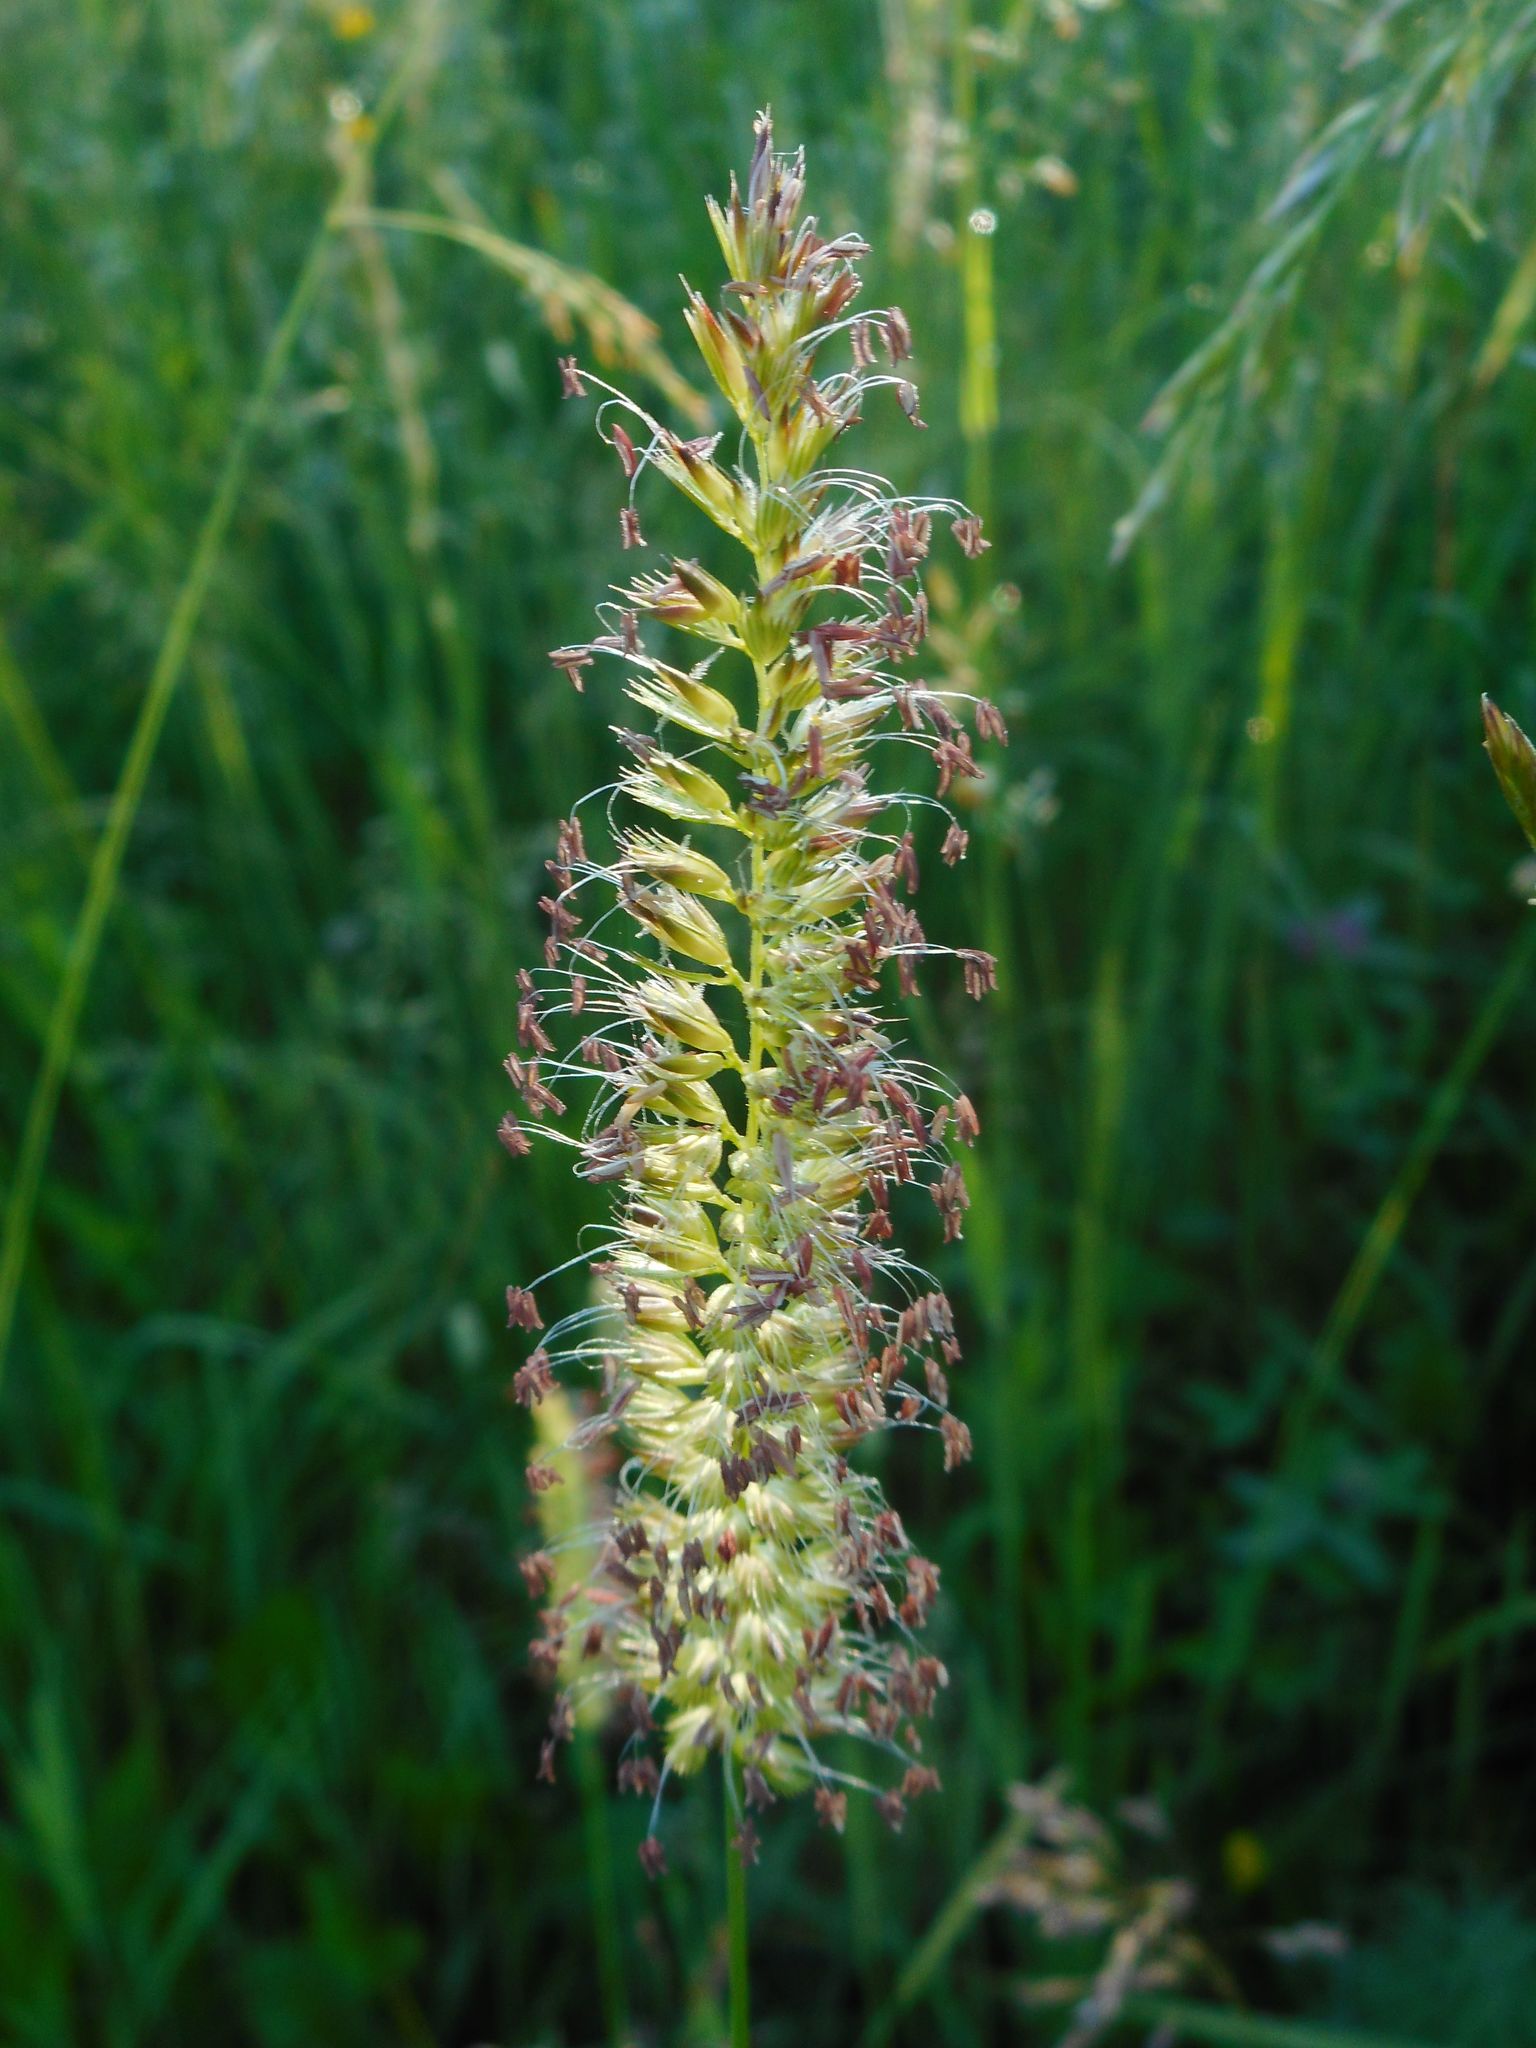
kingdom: Plantae
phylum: Tracheophyta
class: Liliopsida
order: Poales
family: Poaceae
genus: Cynosurus
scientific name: Cynosurus cristatus
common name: Crested dog's-tail
